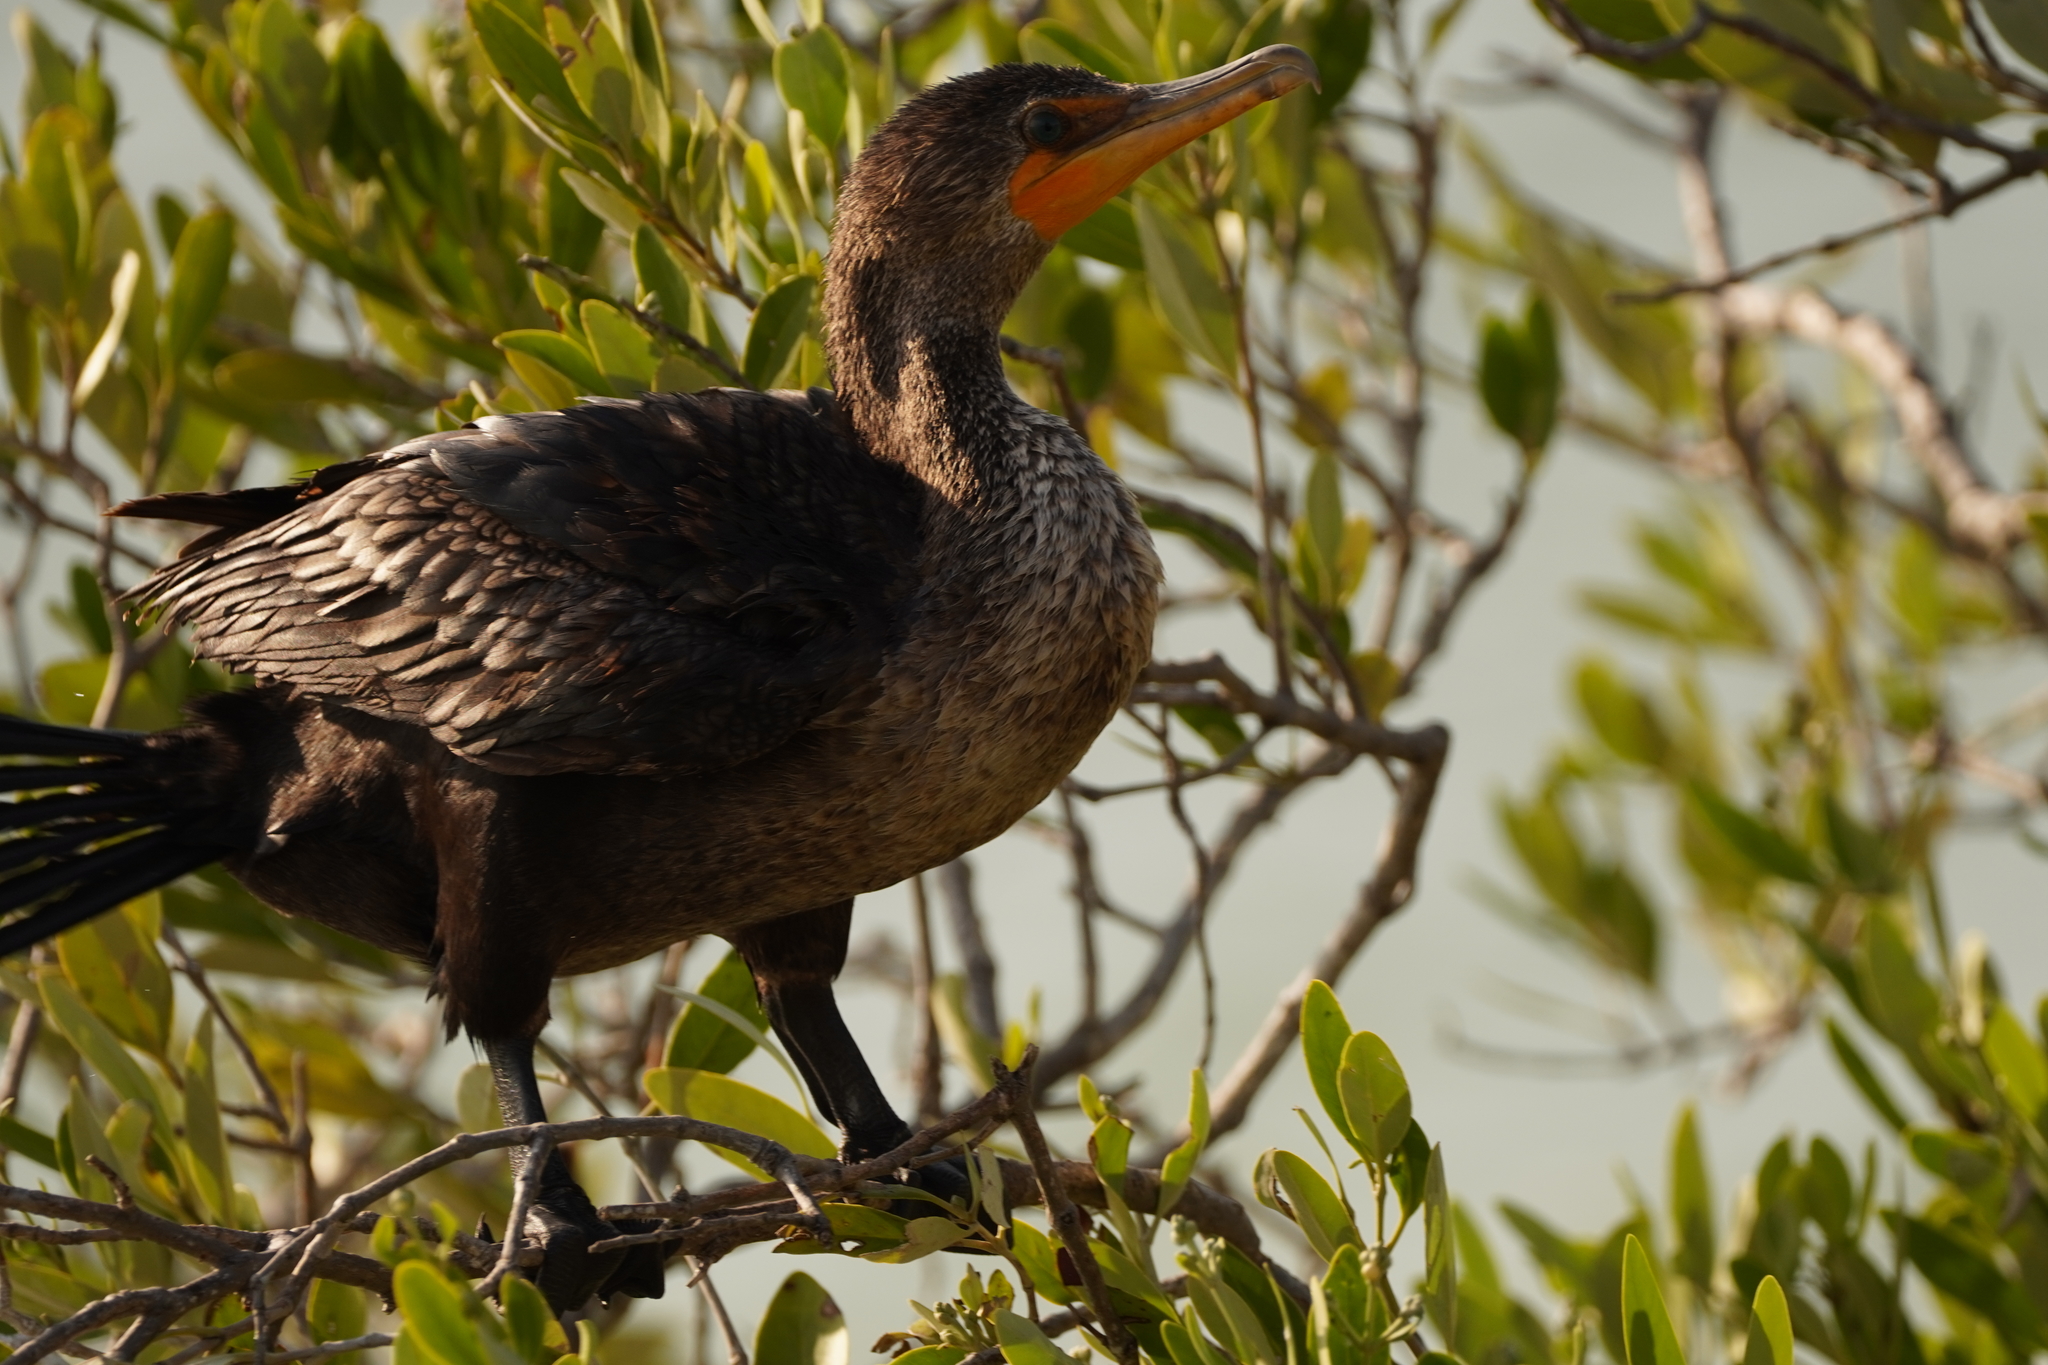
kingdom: Animalia
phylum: Chordata
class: Aves
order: Suliformes
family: Phalacrocoracidae
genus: Phalacrocorax
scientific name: Phalacrocorax auritus
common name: Double-crested cormorant
